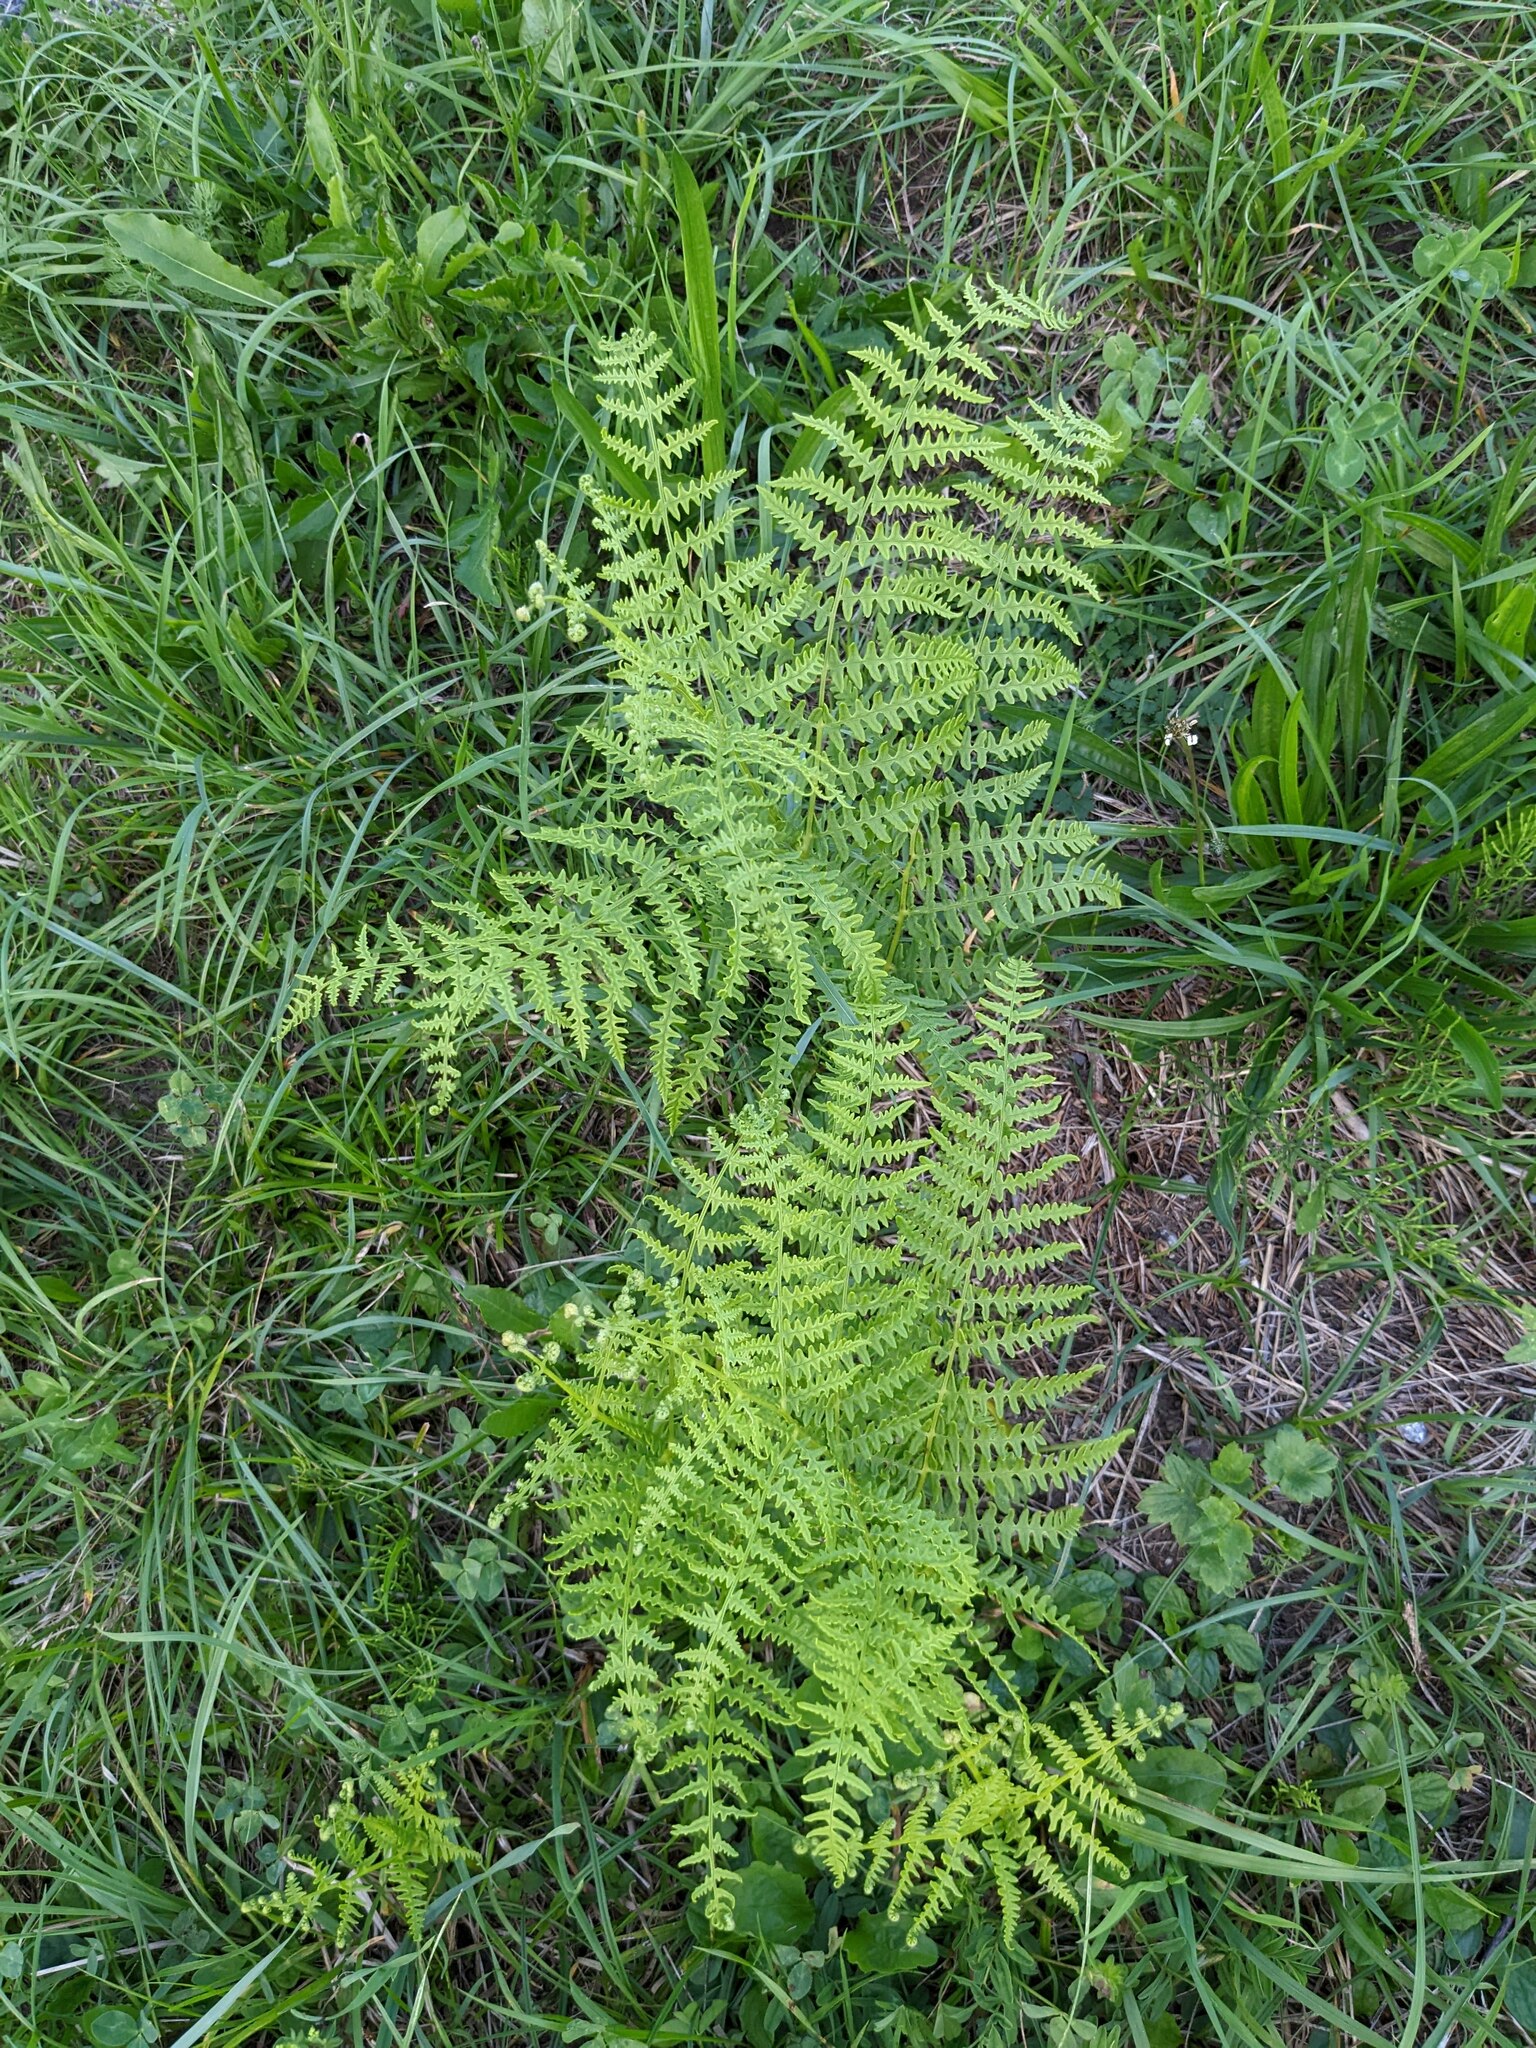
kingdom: Plantae
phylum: Tracheophyta
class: Polypodiopsida
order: Polypodiales
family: Dennstaedtiaceae
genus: Pteridium
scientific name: Pteridium aquilinum
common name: Bracken
